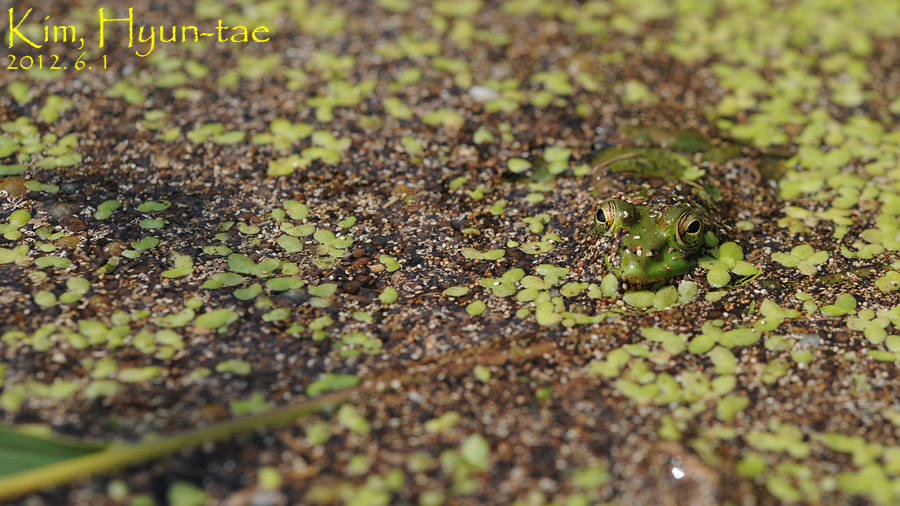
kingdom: Animalia
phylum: Chordata
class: Amphibia
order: Anura
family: Ranidae
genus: Pelophylax
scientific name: Pelophylax chosenicus
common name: Gold-spotted pond frog
